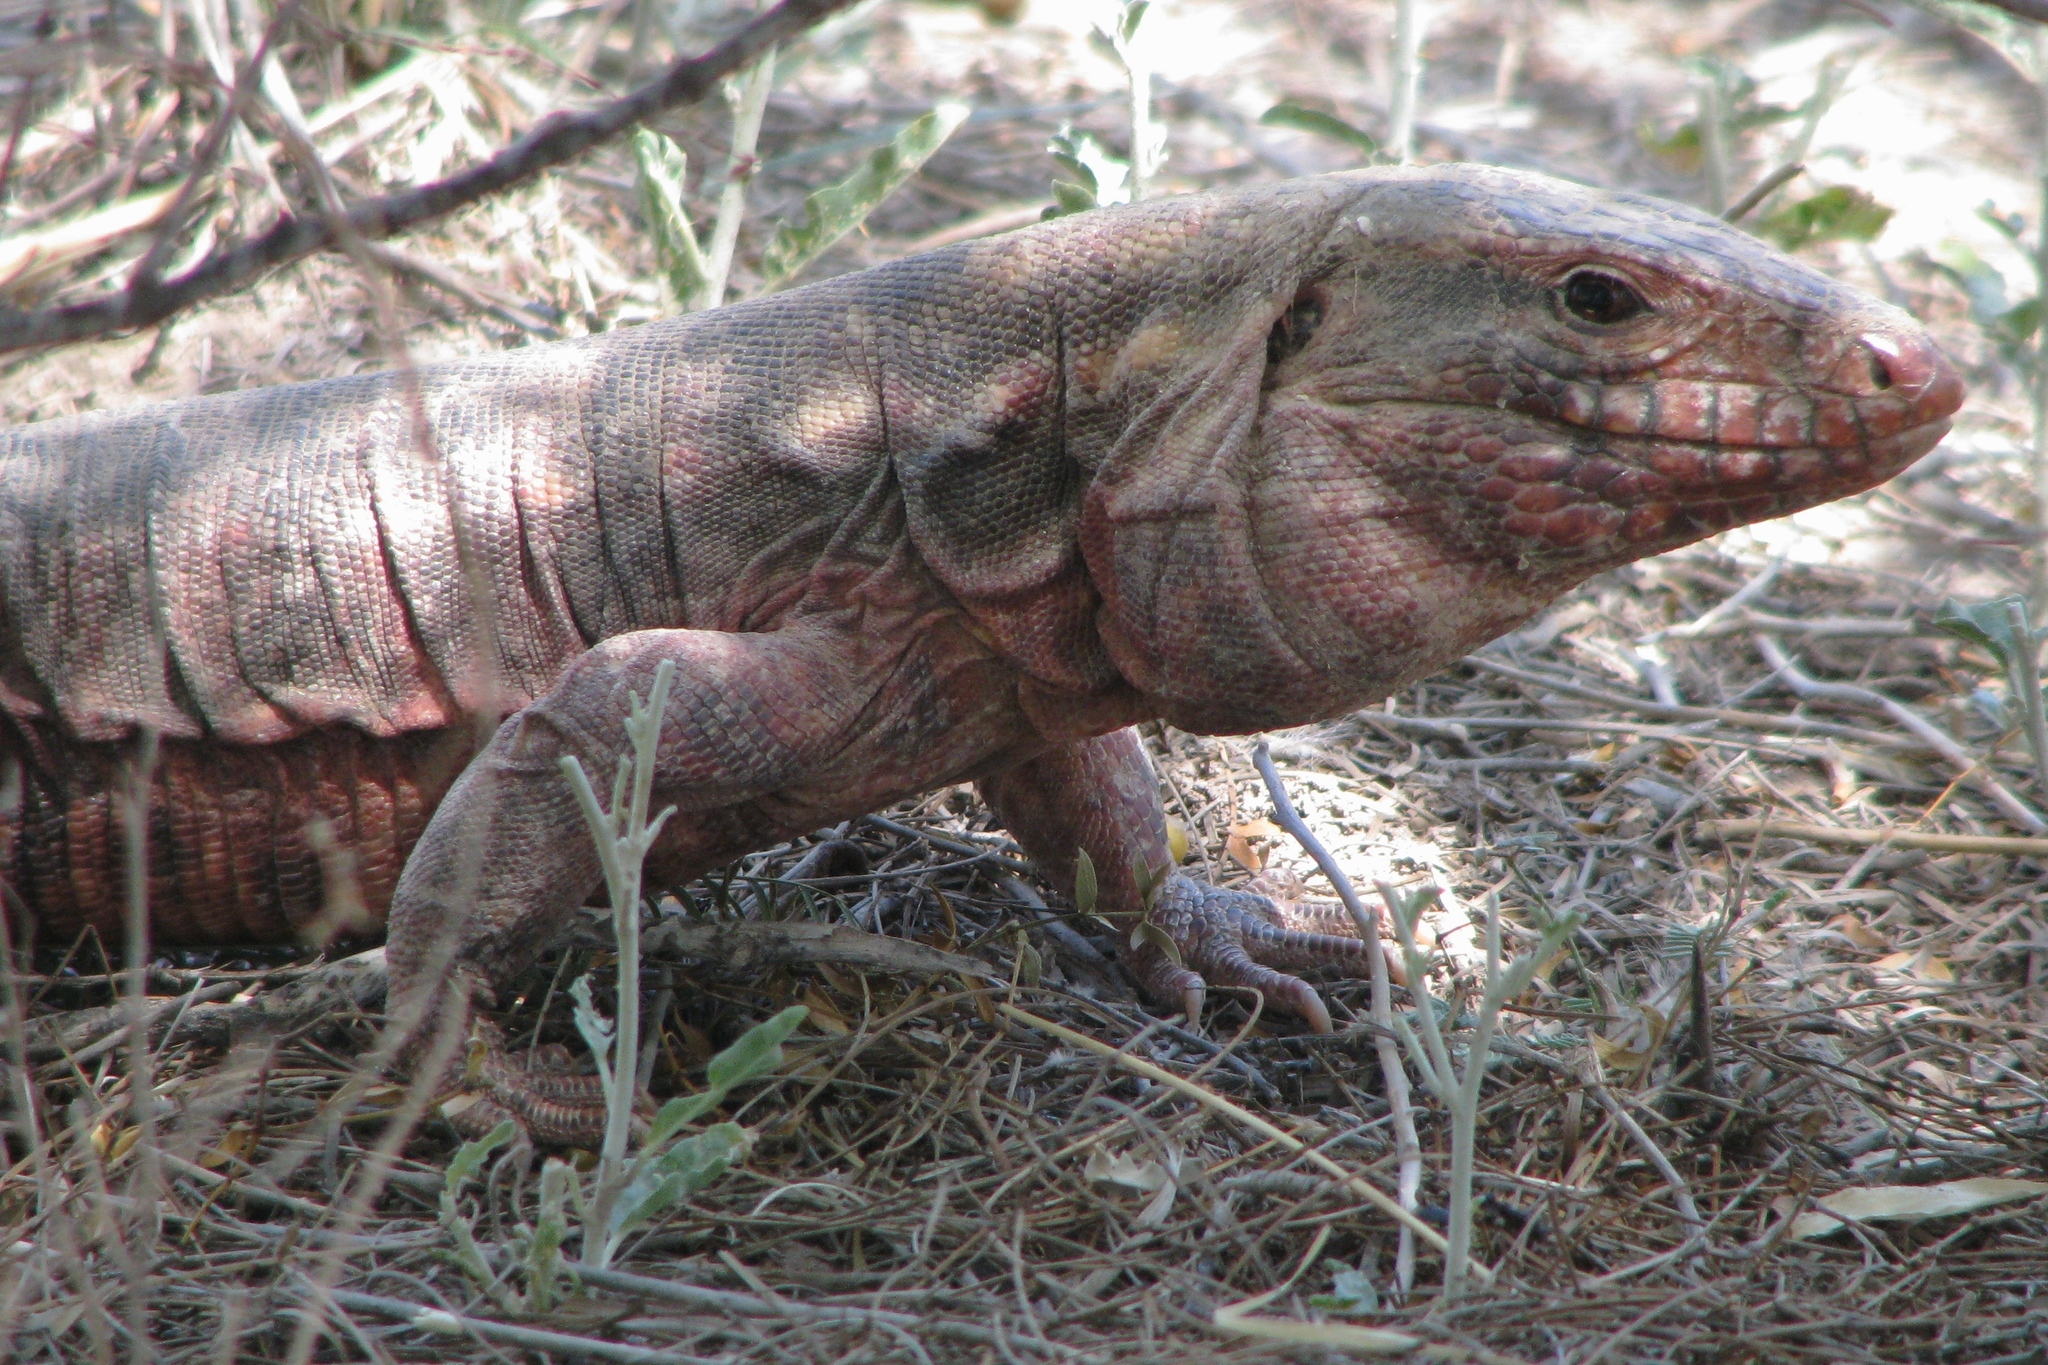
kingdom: Animalia
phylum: Chordata
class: Squamata
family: Teiidae
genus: Salvator
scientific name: Salvator rufescens
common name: Red tegu
